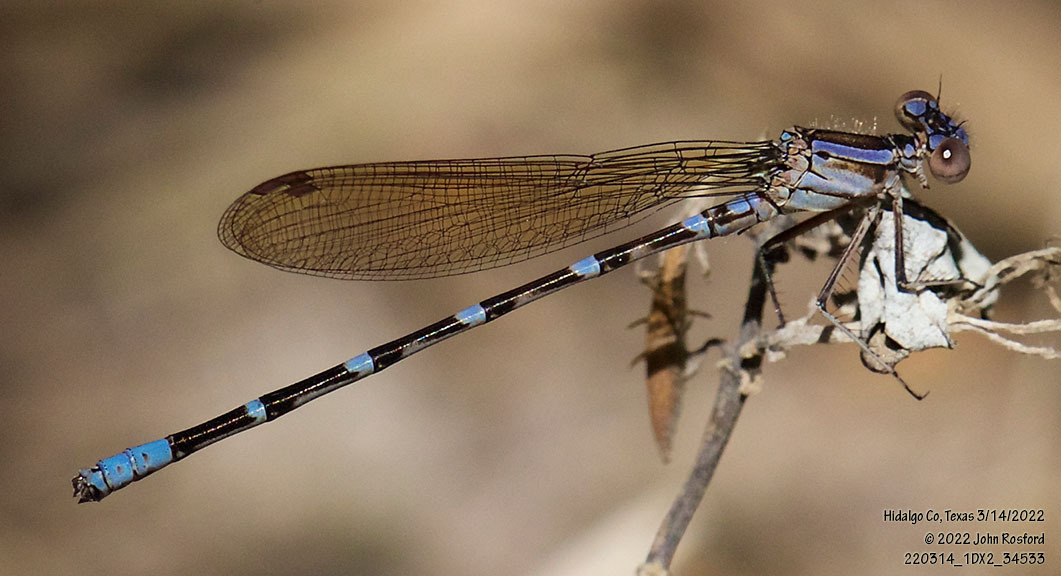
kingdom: Animalia
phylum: Arthropoda
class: Insecta
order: Odonata
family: Coenagrionidae
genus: Argia
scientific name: Argia sedula
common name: Blue-ringed dancer
